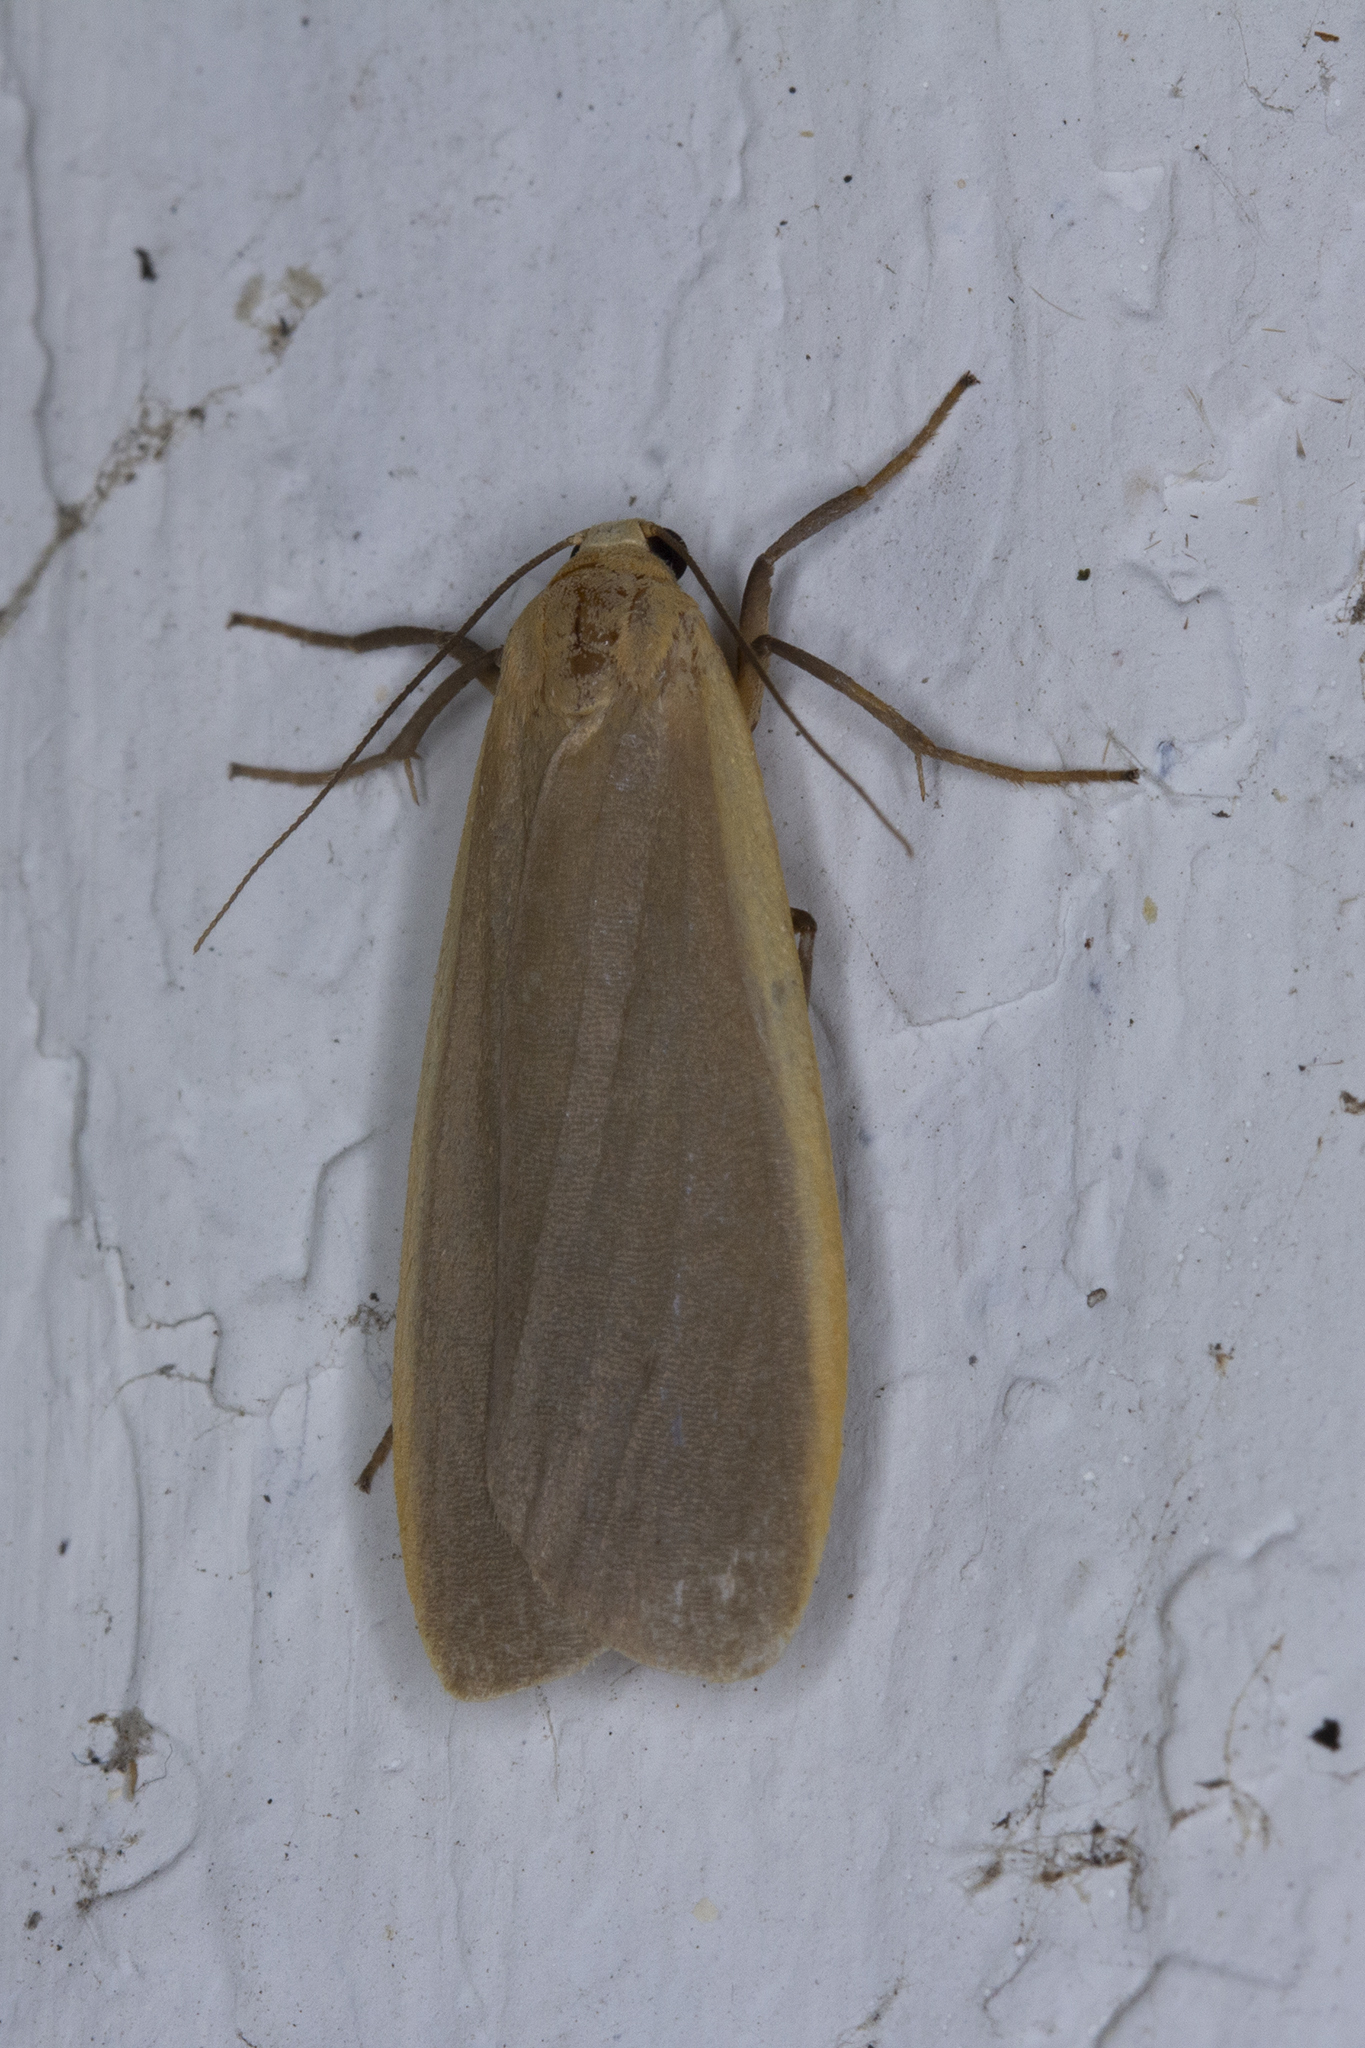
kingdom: Animalia
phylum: Arthropoda
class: Insecta
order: Lepidoptera
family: Erebidae
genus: Nyea
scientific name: Nyea lurideola
